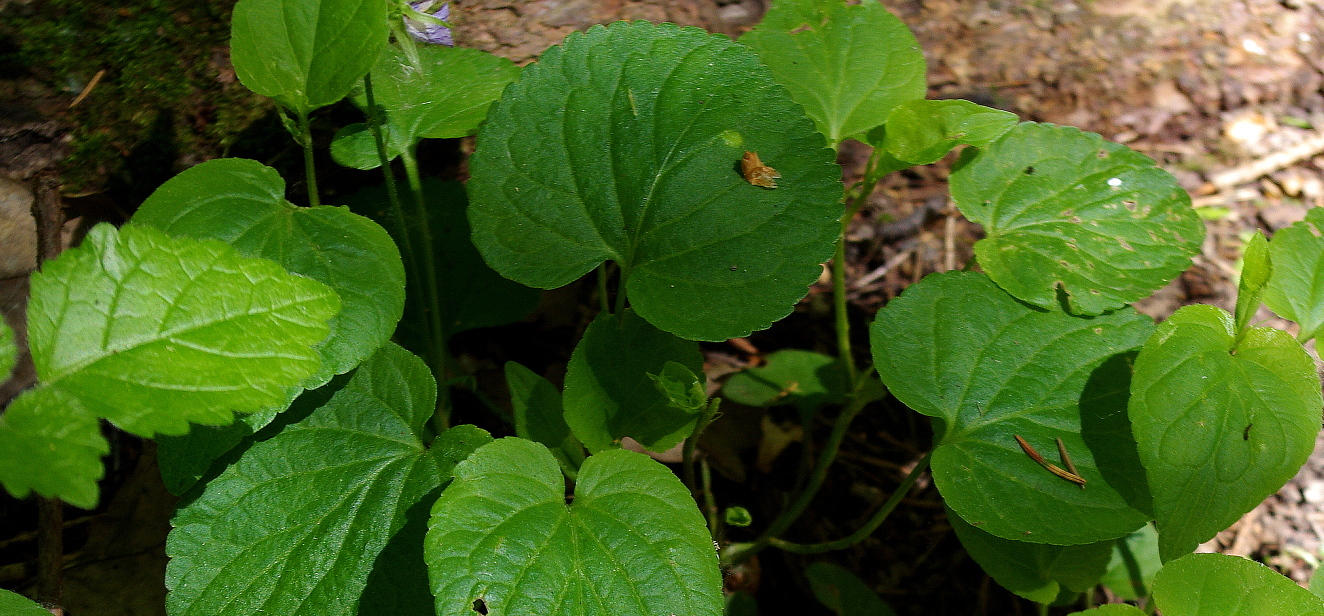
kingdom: Plantae
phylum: Tracheophyta
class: Magnoliopsida
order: Malpighiales
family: Violaceae
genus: Viola
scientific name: Viola riviniana
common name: Common dog-violet
